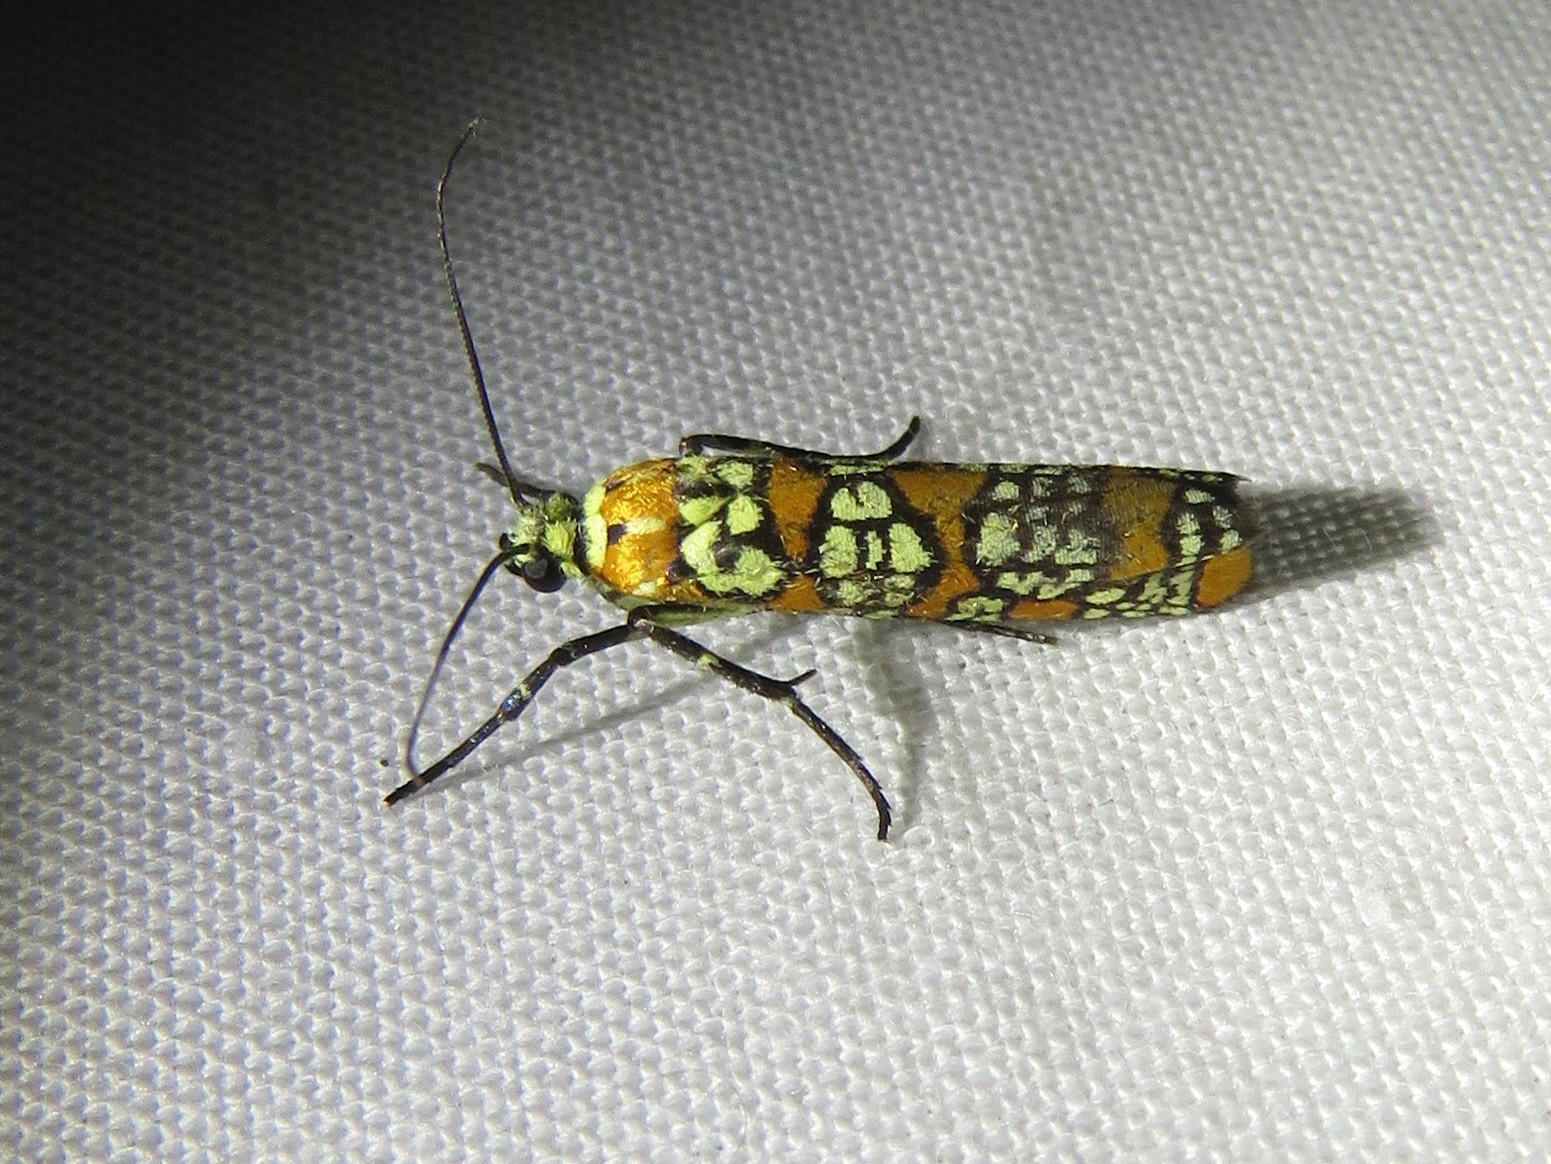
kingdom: Animalia
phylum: Arthropoda
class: Insecta
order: Lepidoptera
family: Attevidae
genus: Atteva
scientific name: Atteva punctella
